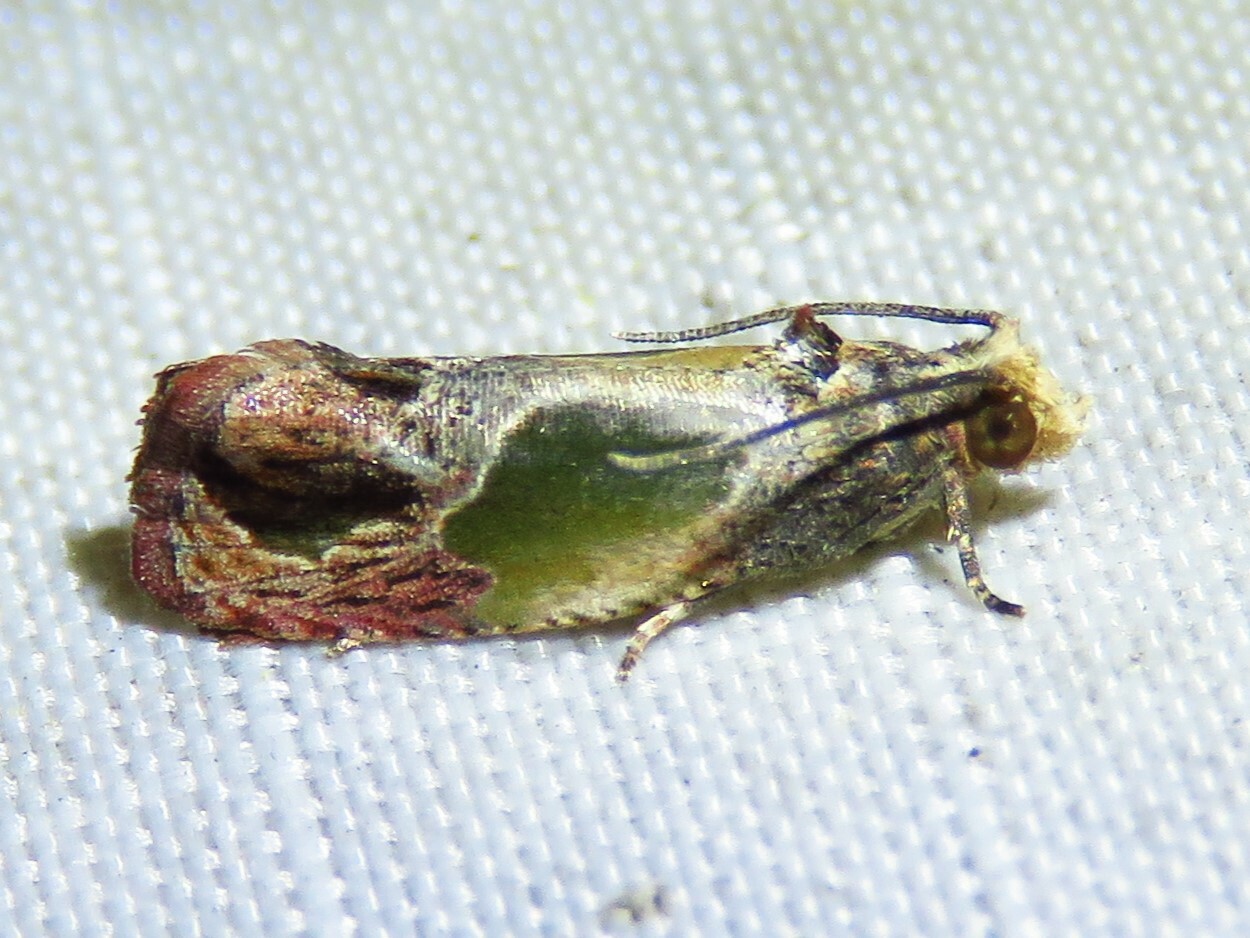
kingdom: Animalia
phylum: Arthropoda
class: Insecta
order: Lepidoptera
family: Tortricidae
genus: Eumarozia
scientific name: Eumarozia malachitana
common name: Sculptured moth
